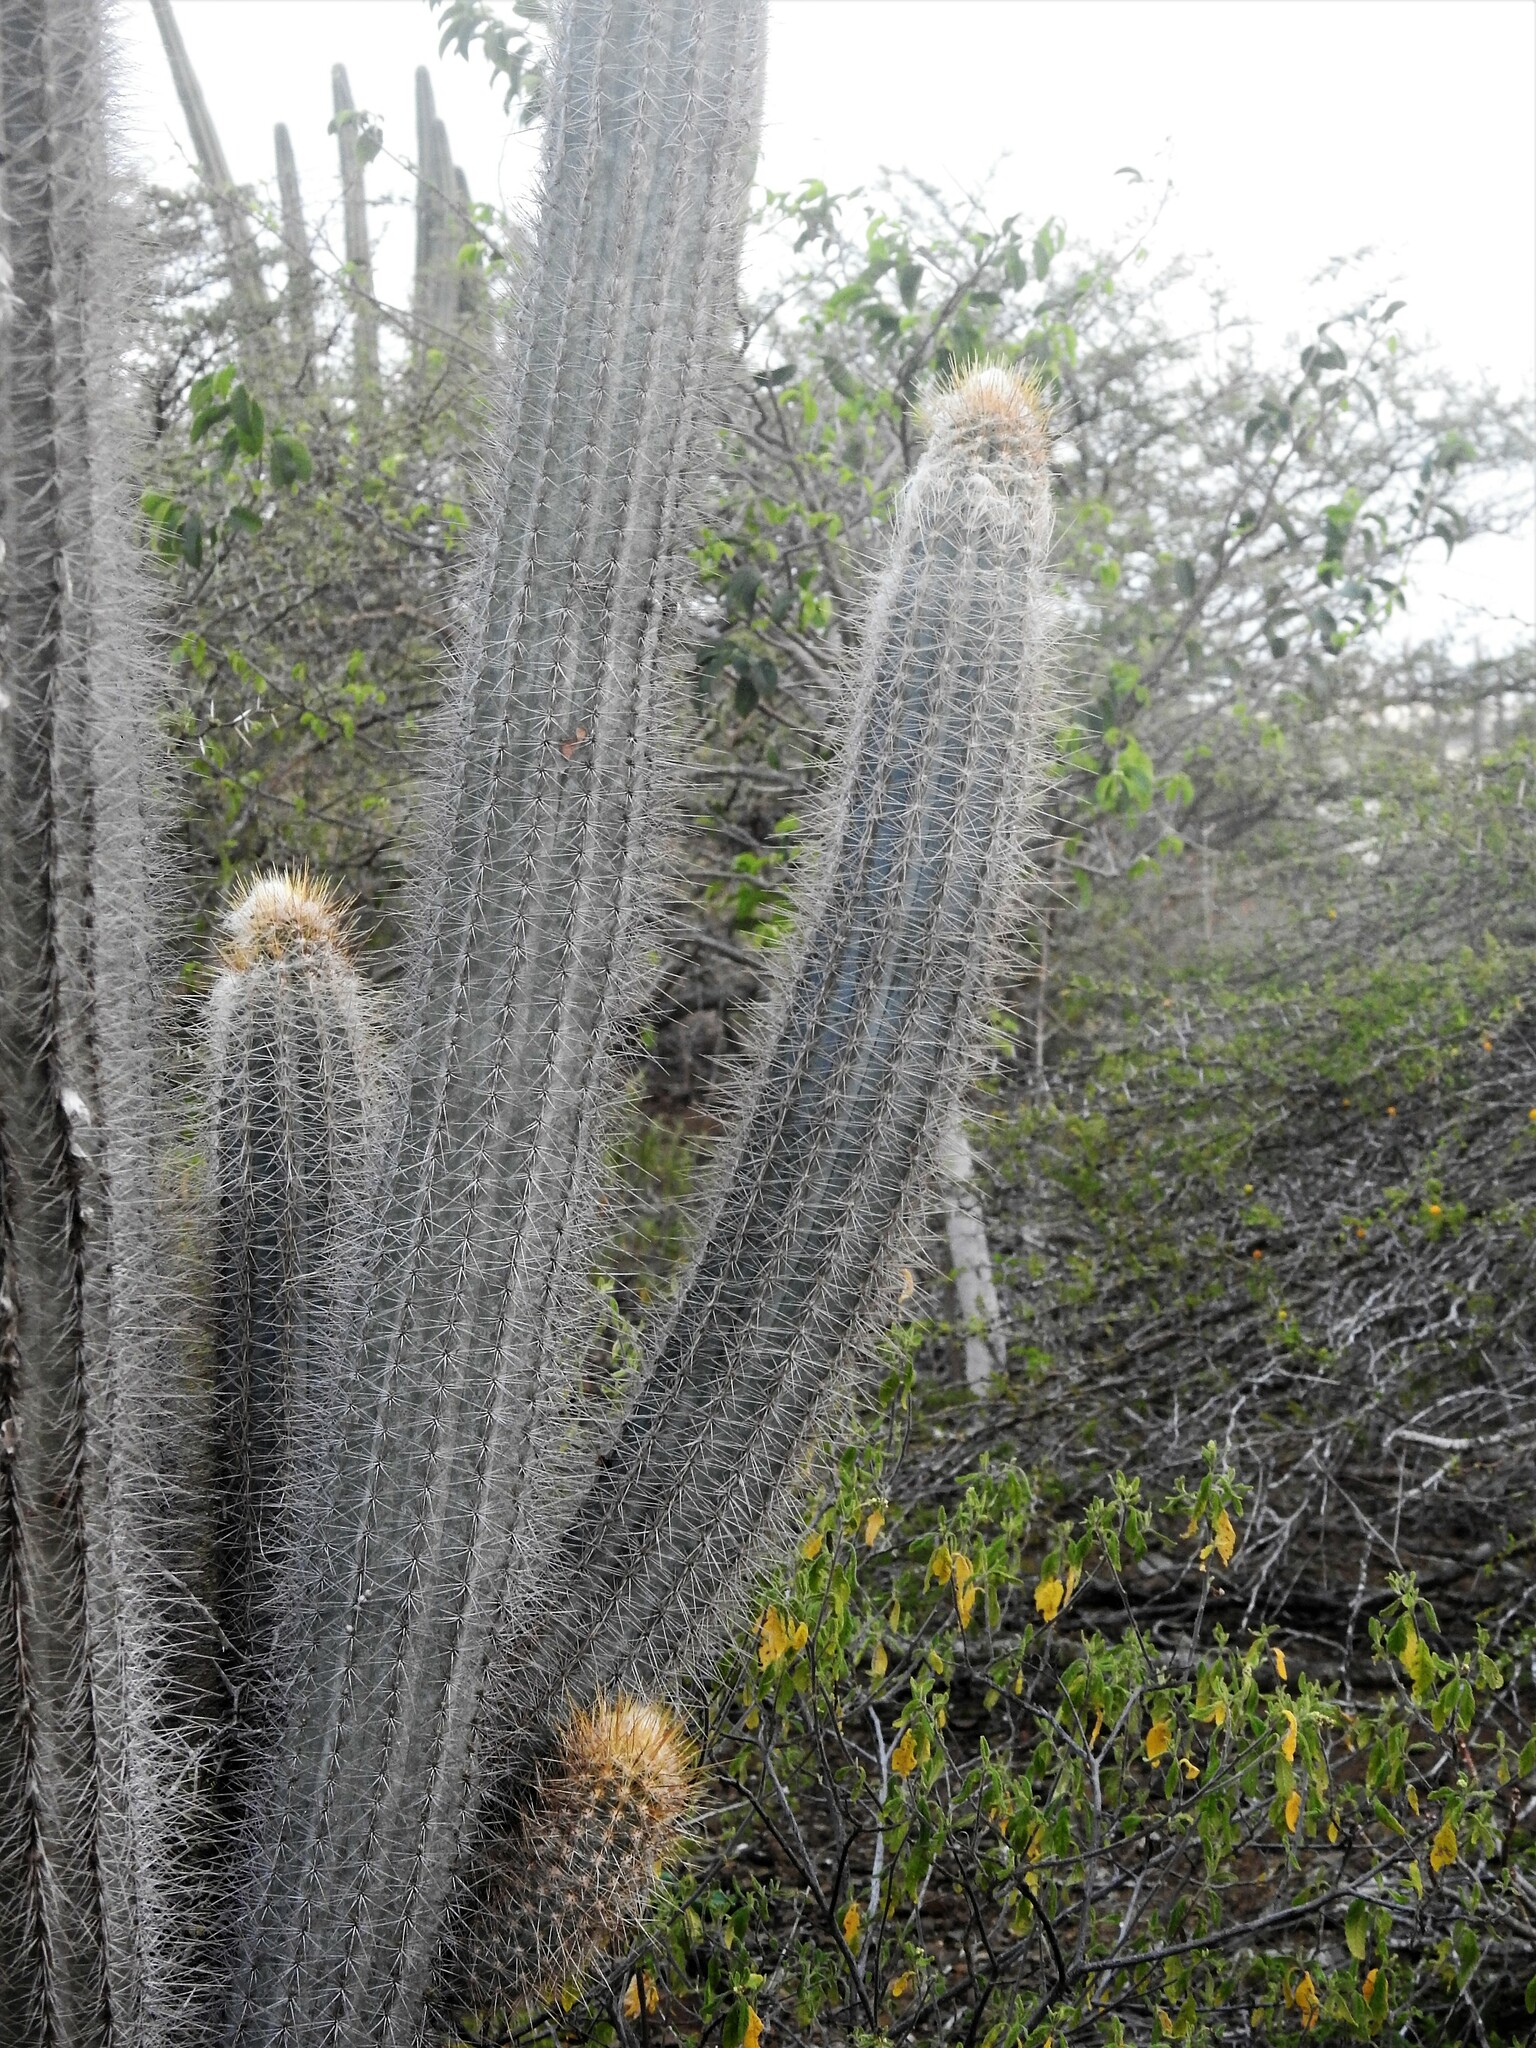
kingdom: Plantae
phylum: Tracheophyta
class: Magnoliopsida
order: Caryophyllales
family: Cactaceae
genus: Pilosocereus
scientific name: Pilosocereus lanuginosus
